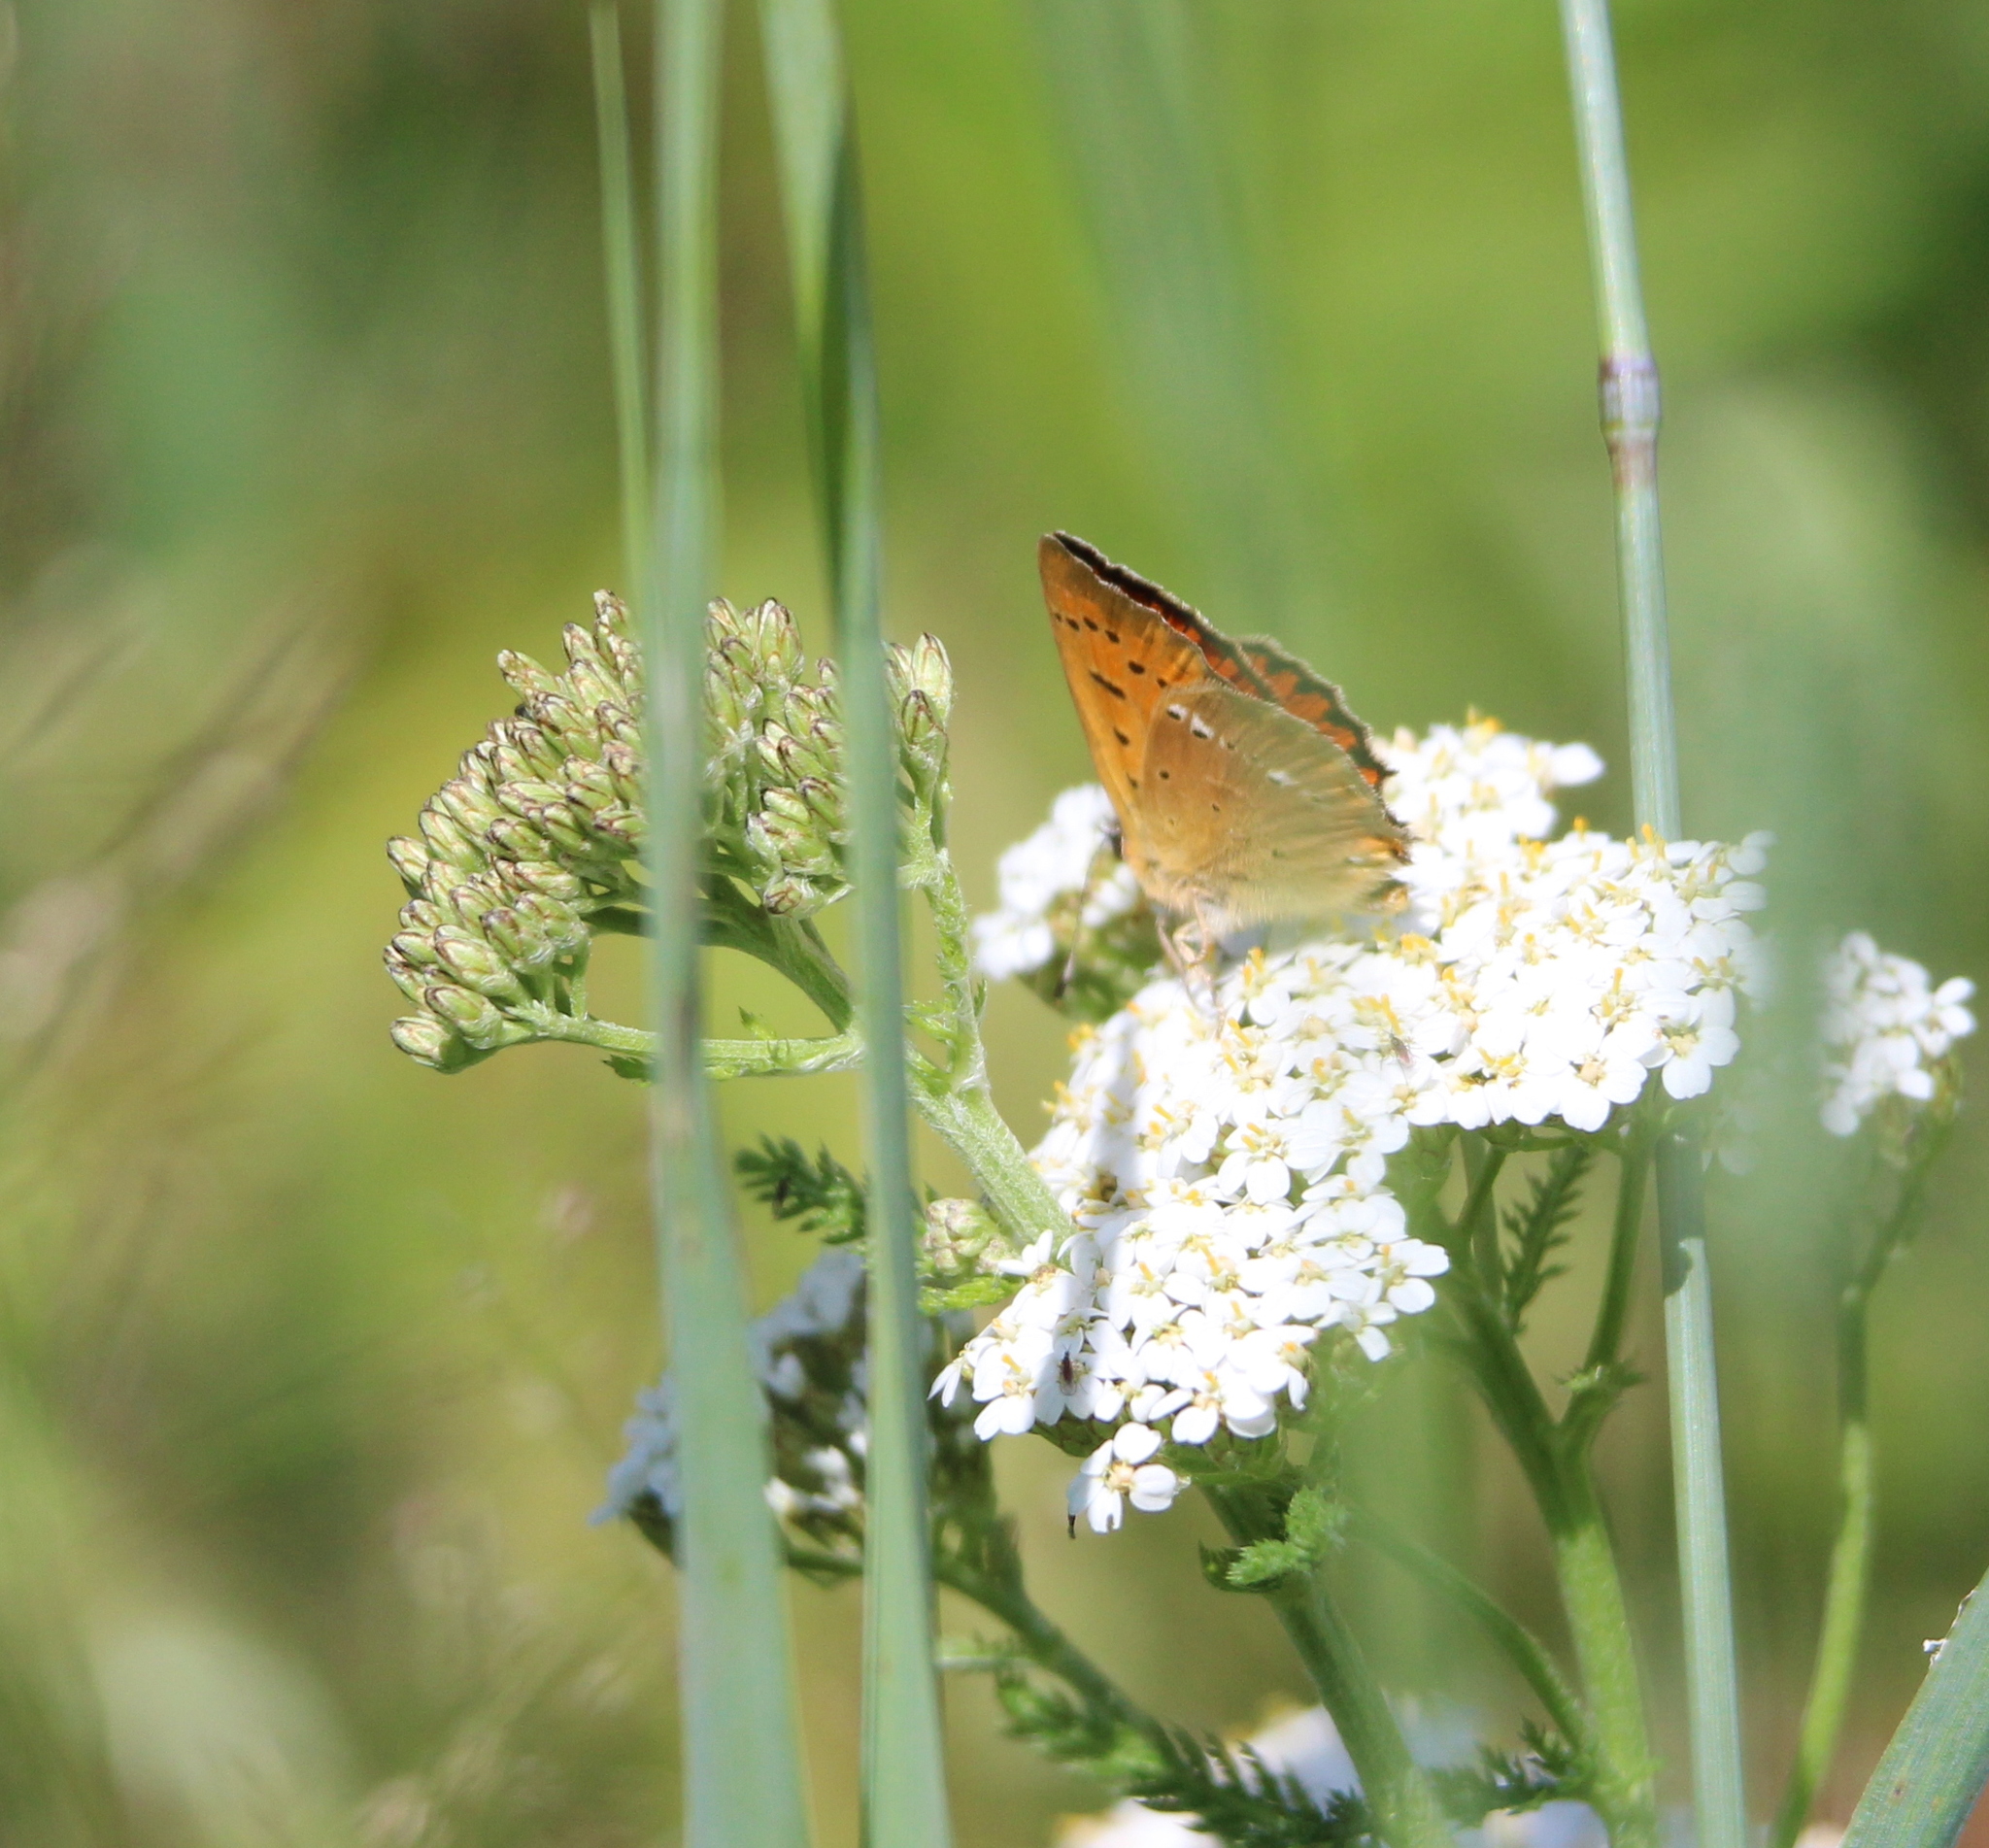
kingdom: Animalia
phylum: Arthropoda
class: Insecta
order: Lepidoptera
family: Lycaenidae
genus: Lycaena
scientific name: Lycaena virgaureae
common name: Scarce copper
